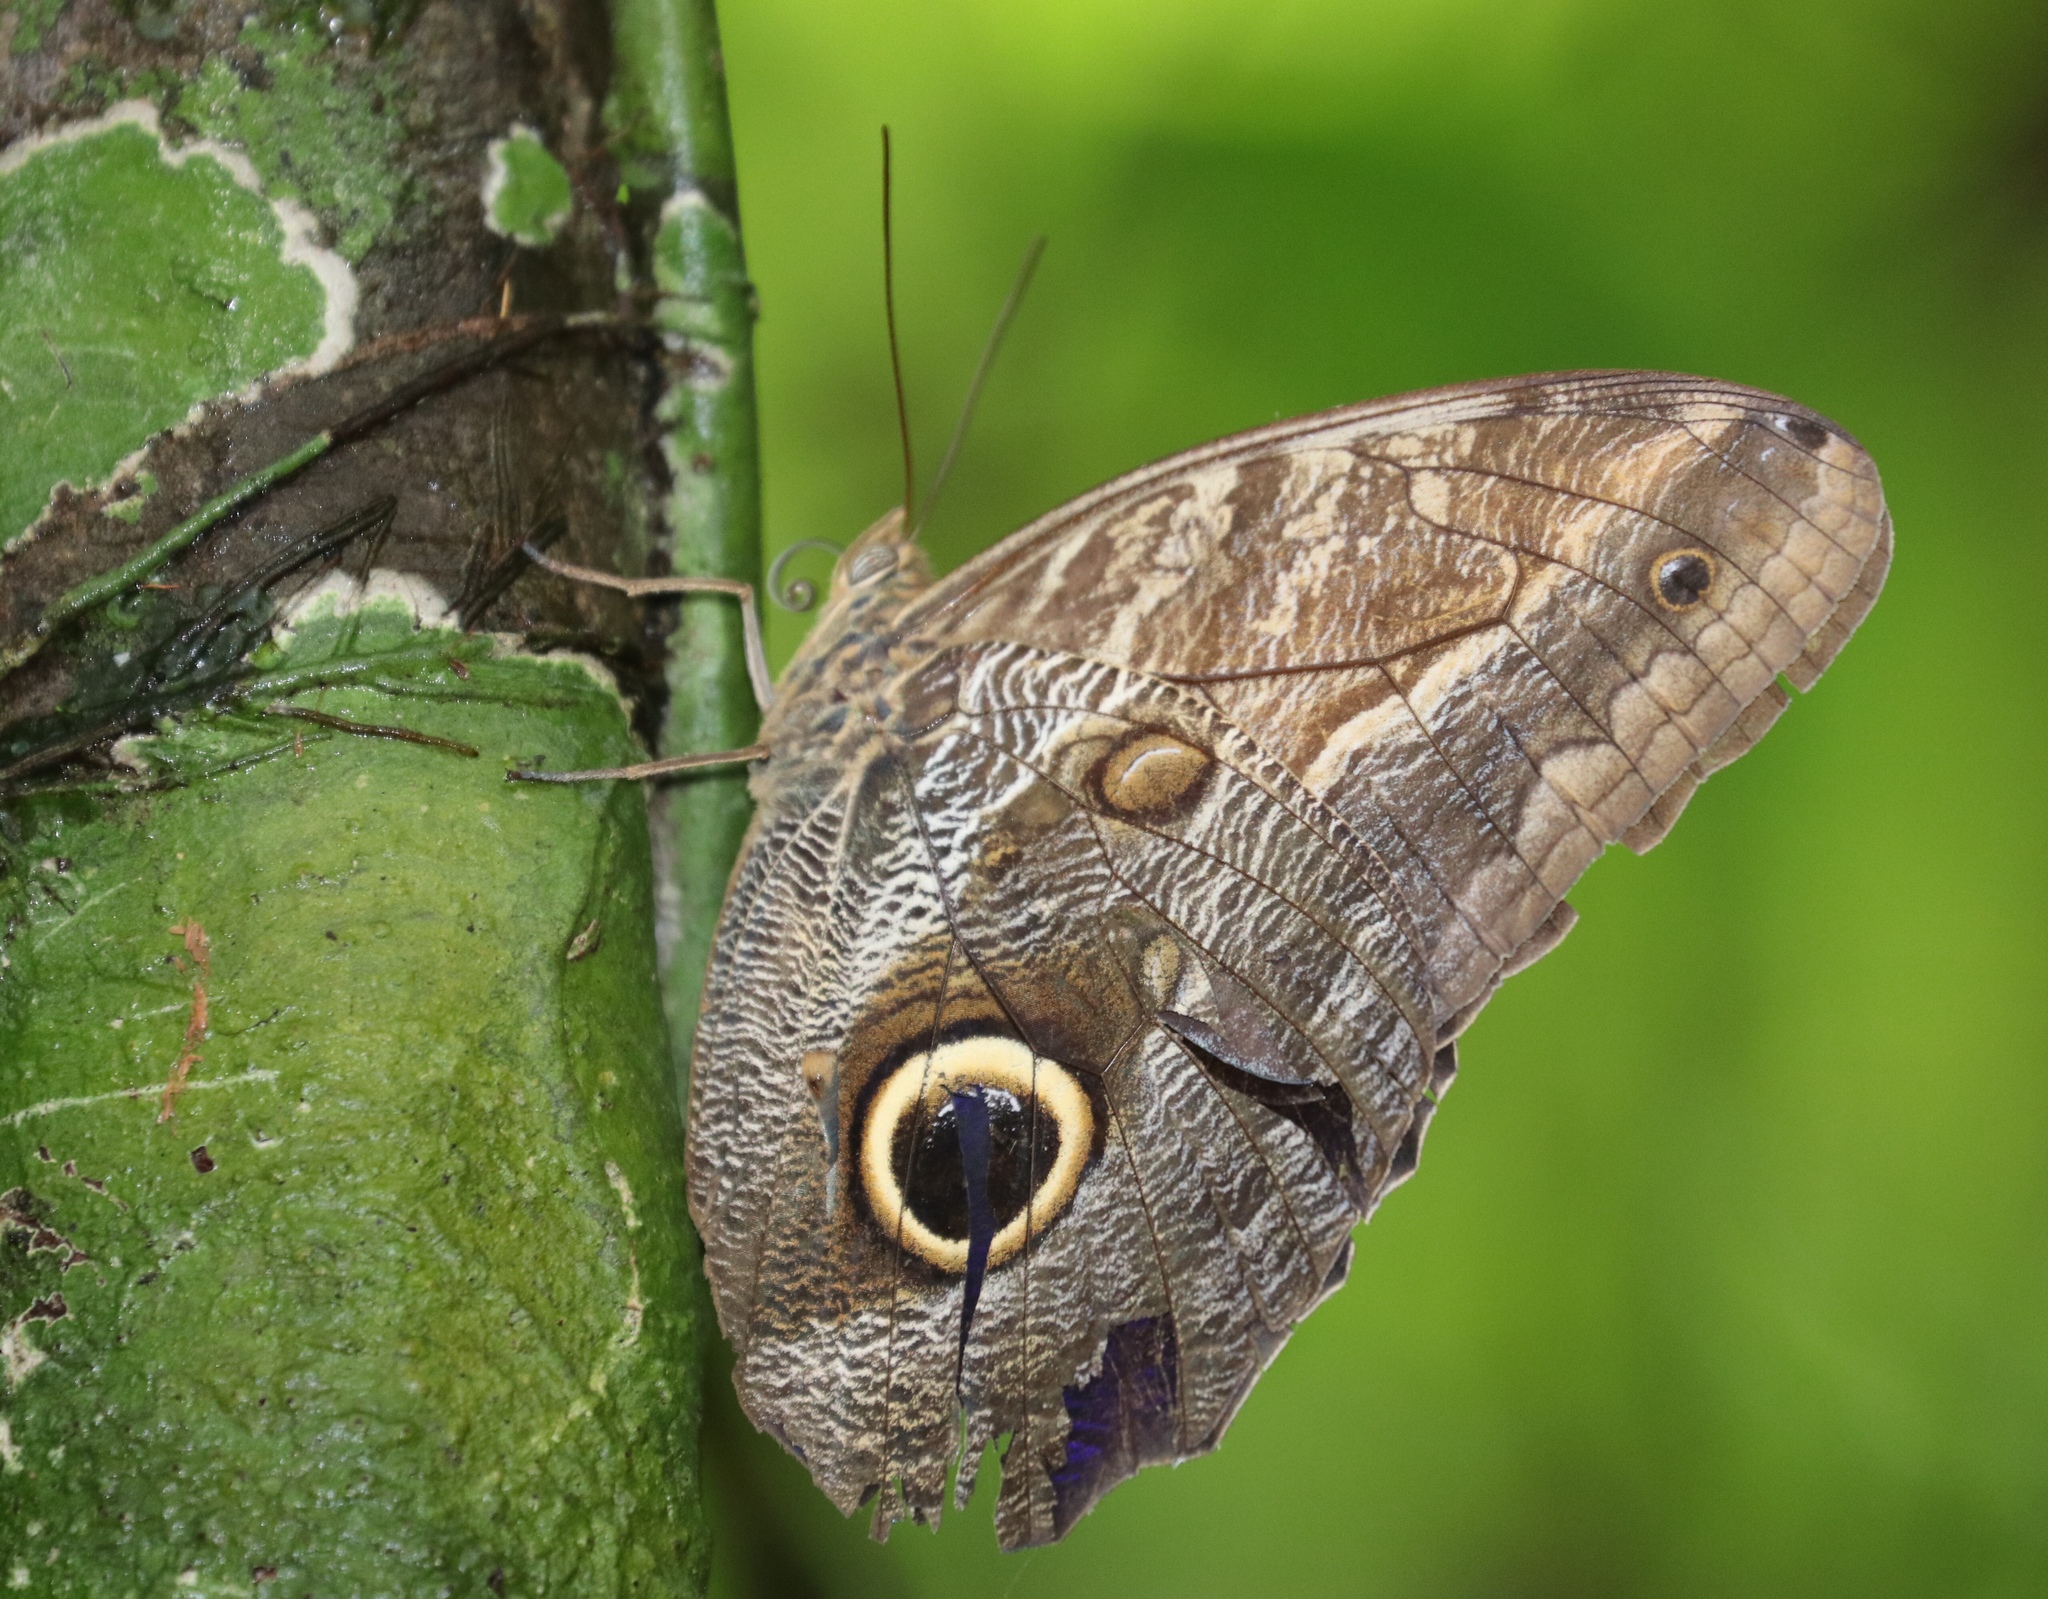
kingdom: Animalia
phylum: Arthropoda
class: Insecta
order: Lepidoptera
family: Nymphalidae
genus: Caligo
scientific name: Caligo telamonius
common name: Pale owl-butterfly
